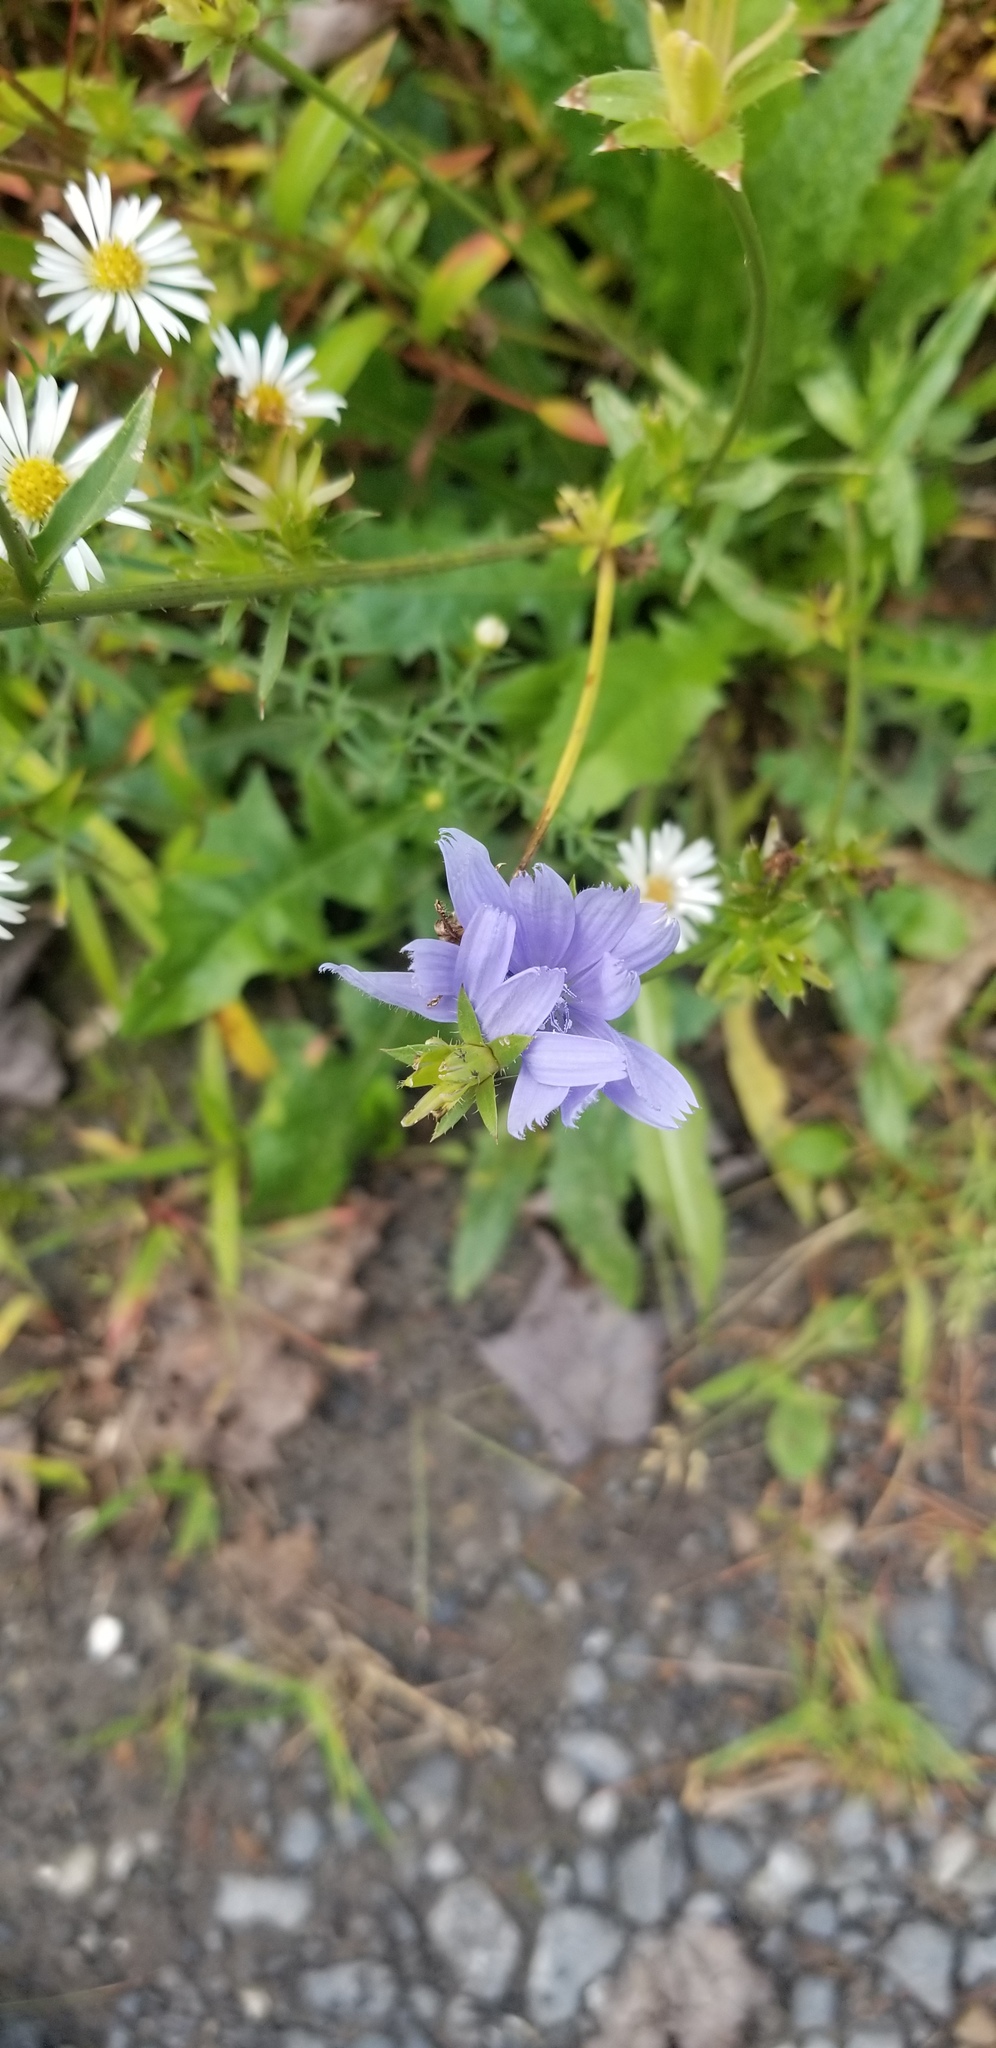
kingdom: Plantae
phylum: Tracheophyta
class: Magnoliopsida
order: Asterales
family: Asteraceae
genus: Cichorium
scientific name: Cichorium intybus
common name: Chicory
